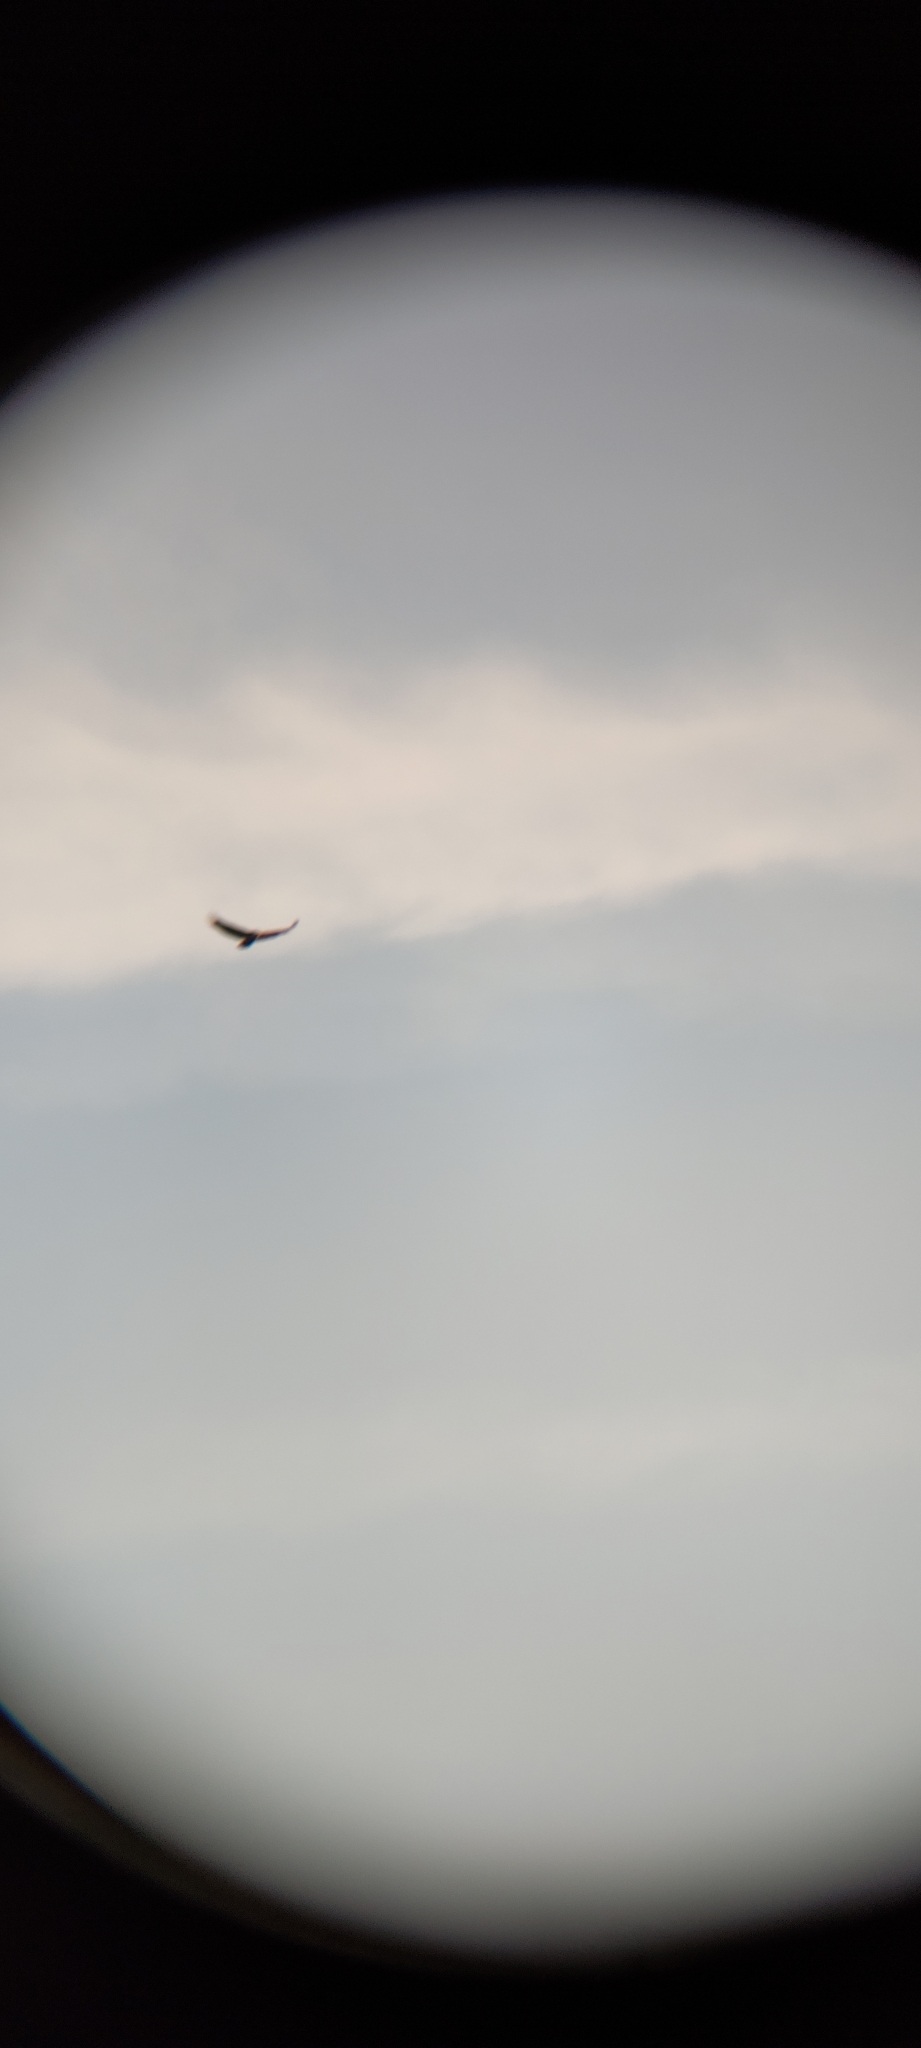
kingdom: Animalia
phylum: Chordata
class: Aves
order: Accipitriformes
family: Accipitridae
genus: Gyps
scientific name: Gyps fulvus
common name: Griffon vulture
